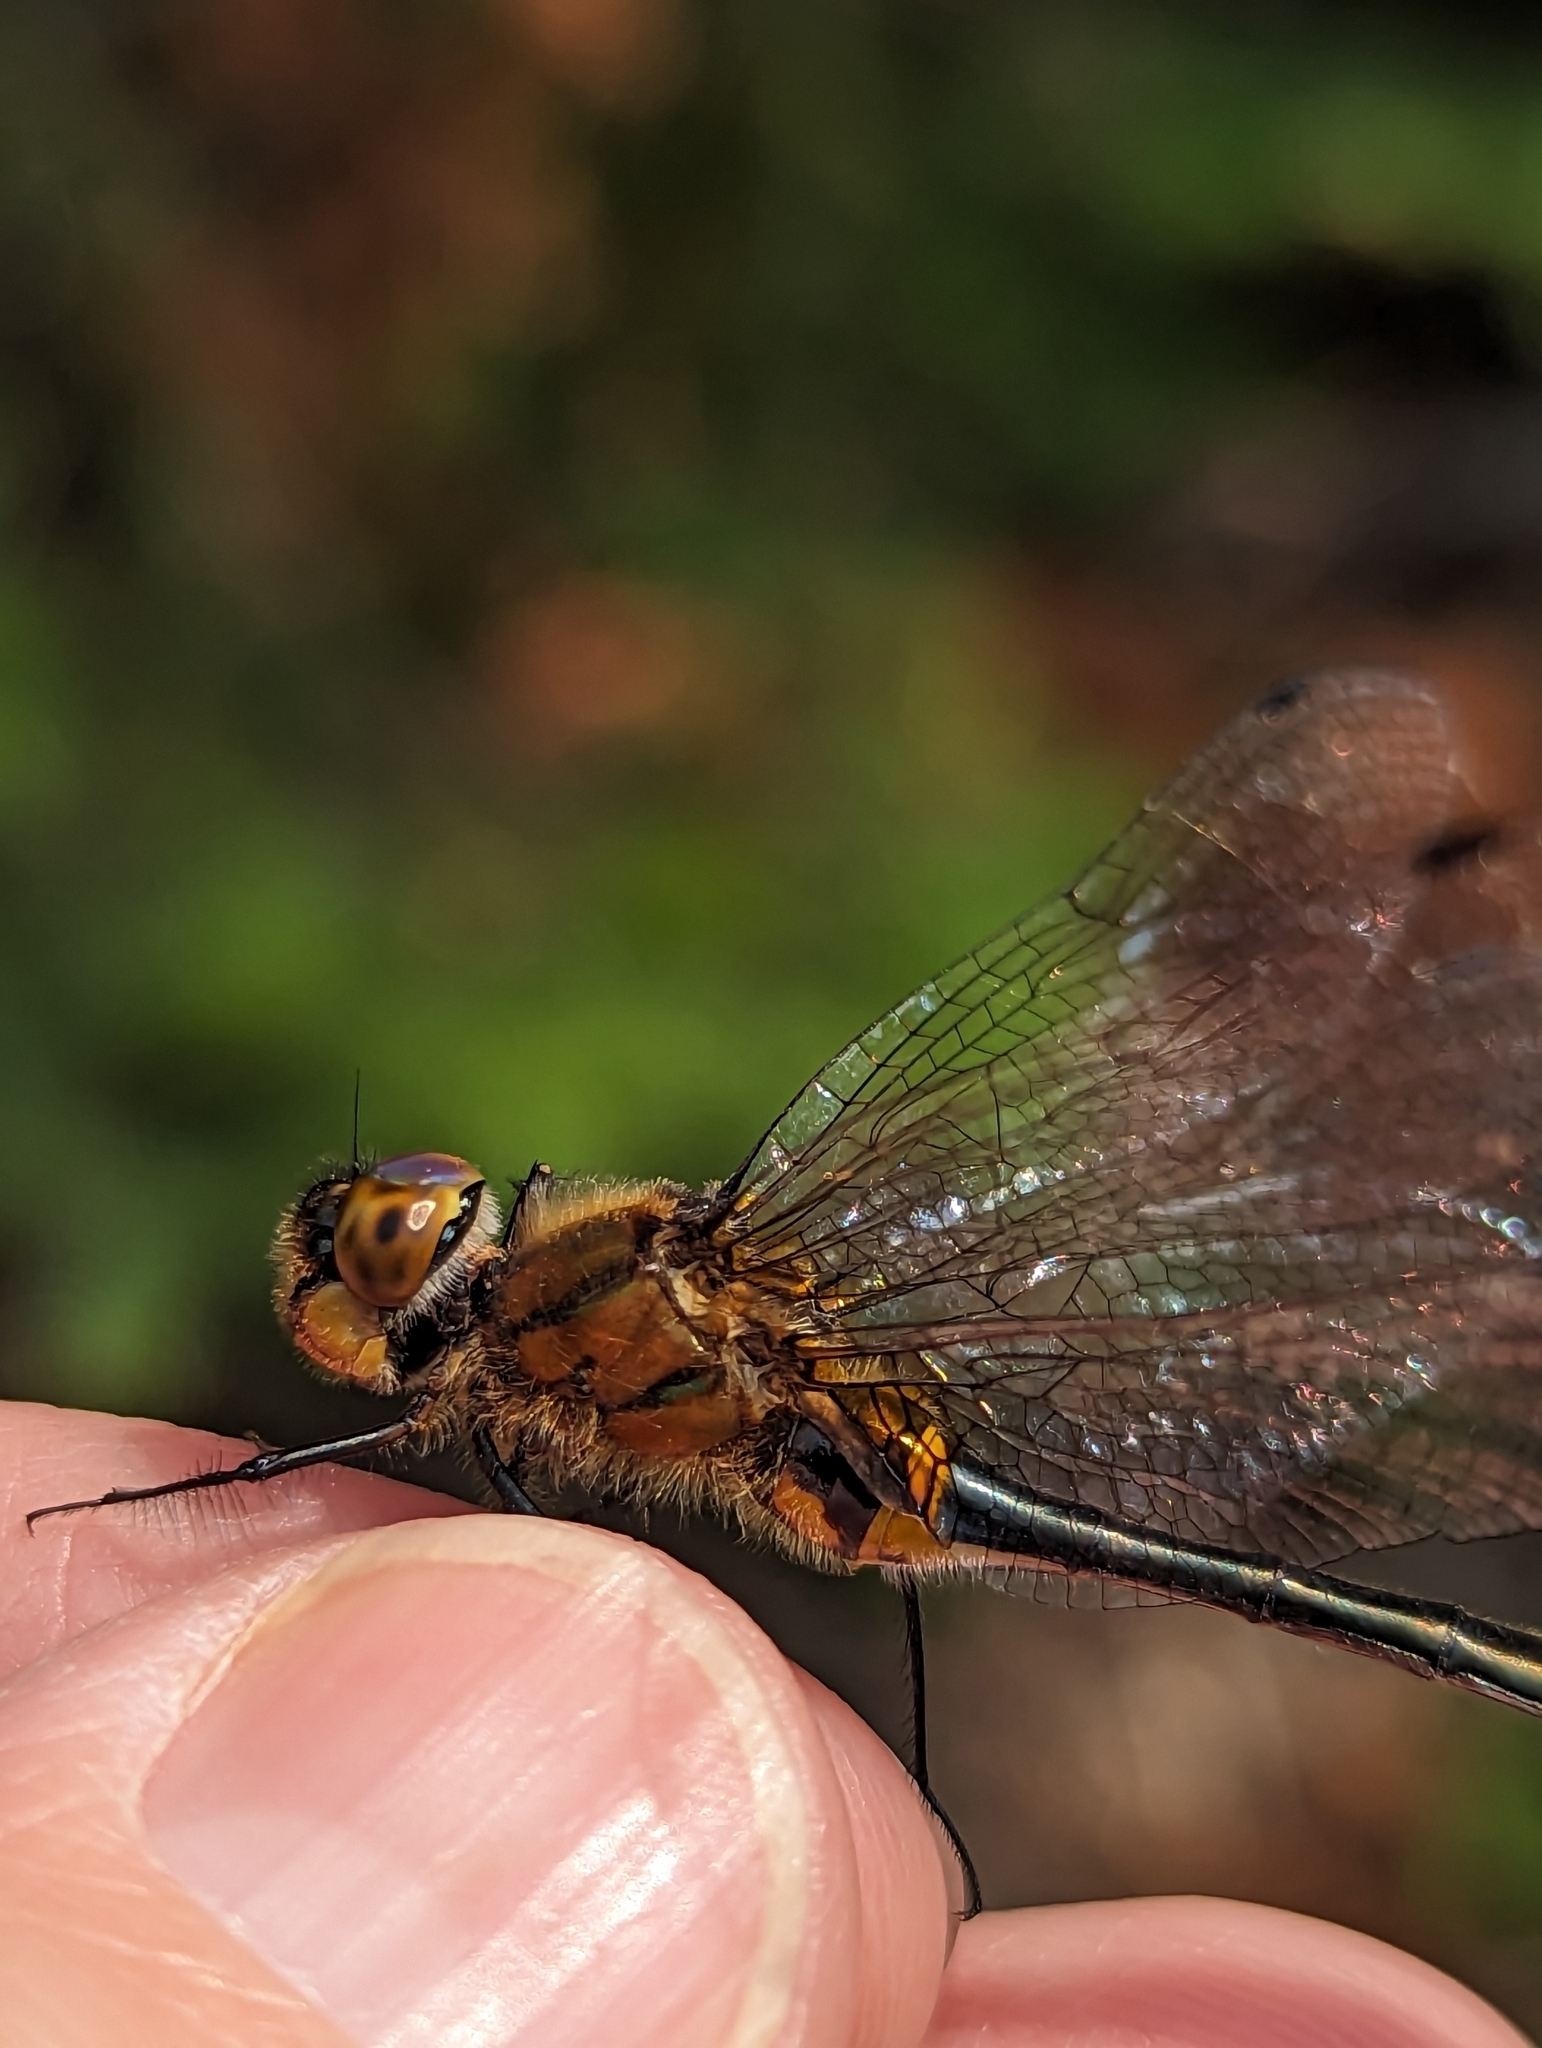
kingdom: Animalia
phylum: Arthropoda
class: Insecta
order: Odonata
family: Corduliidae
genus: Dorocordulia
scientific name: Dorocordulia libera
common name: Racket-tailed emerald
